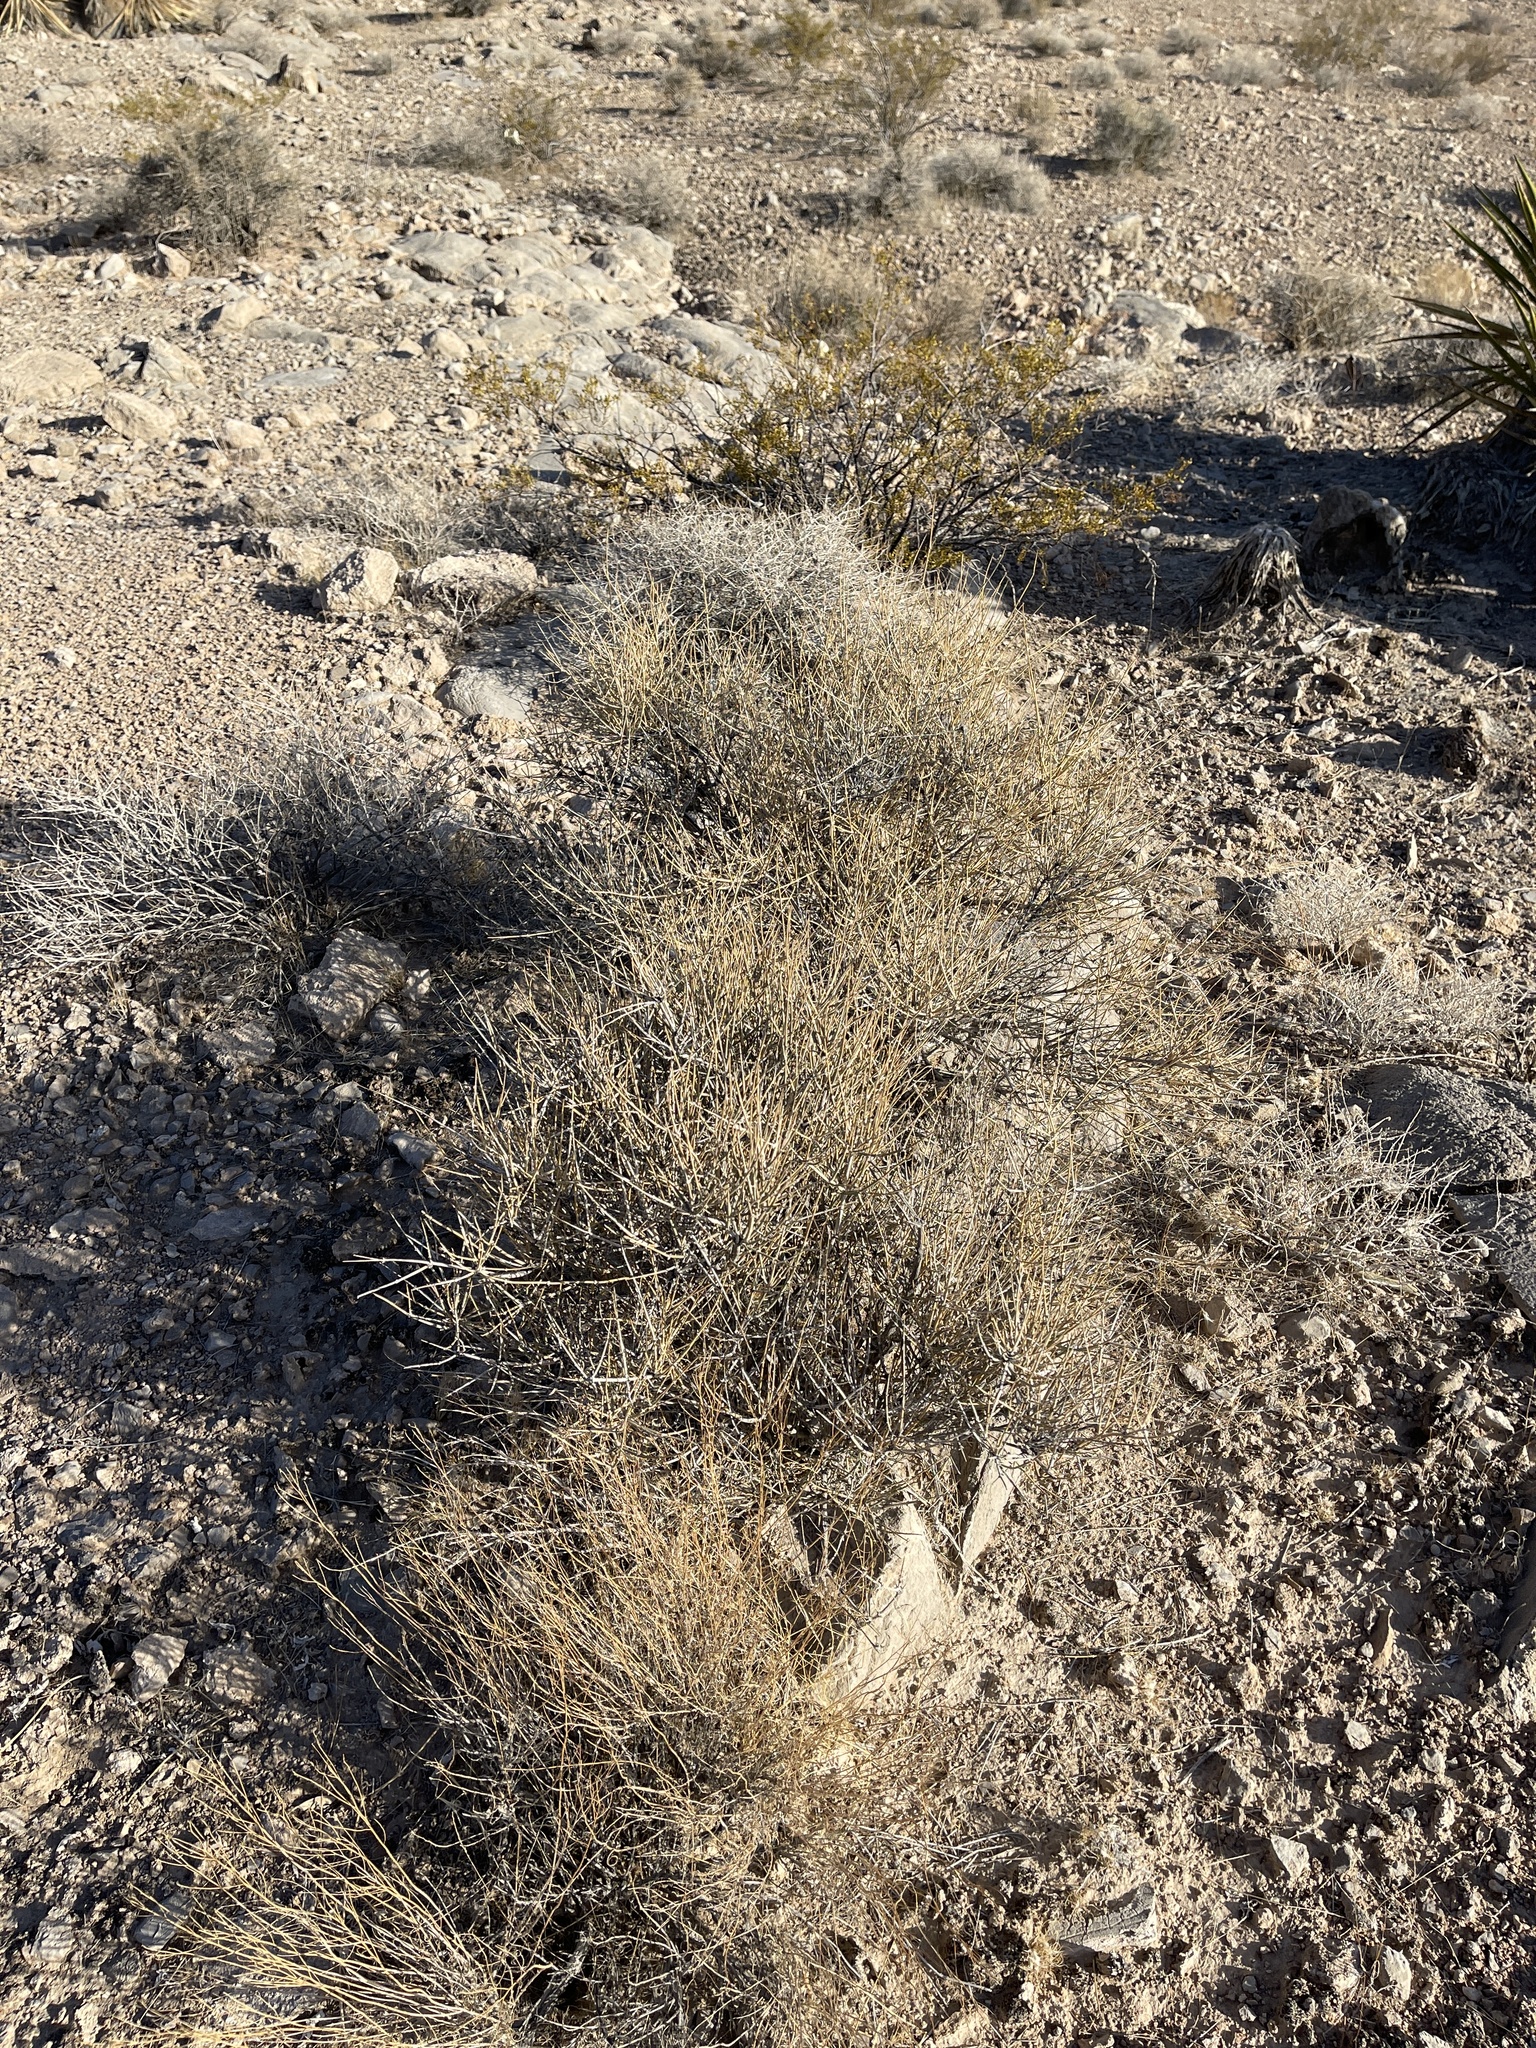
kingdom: Plantae
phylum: Tracheophyta
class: Gnetopsida
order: Ephedrales
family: Ephedraceae
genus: Ephedra
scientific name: Ephedra nevadensis
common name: Gray ephedra
